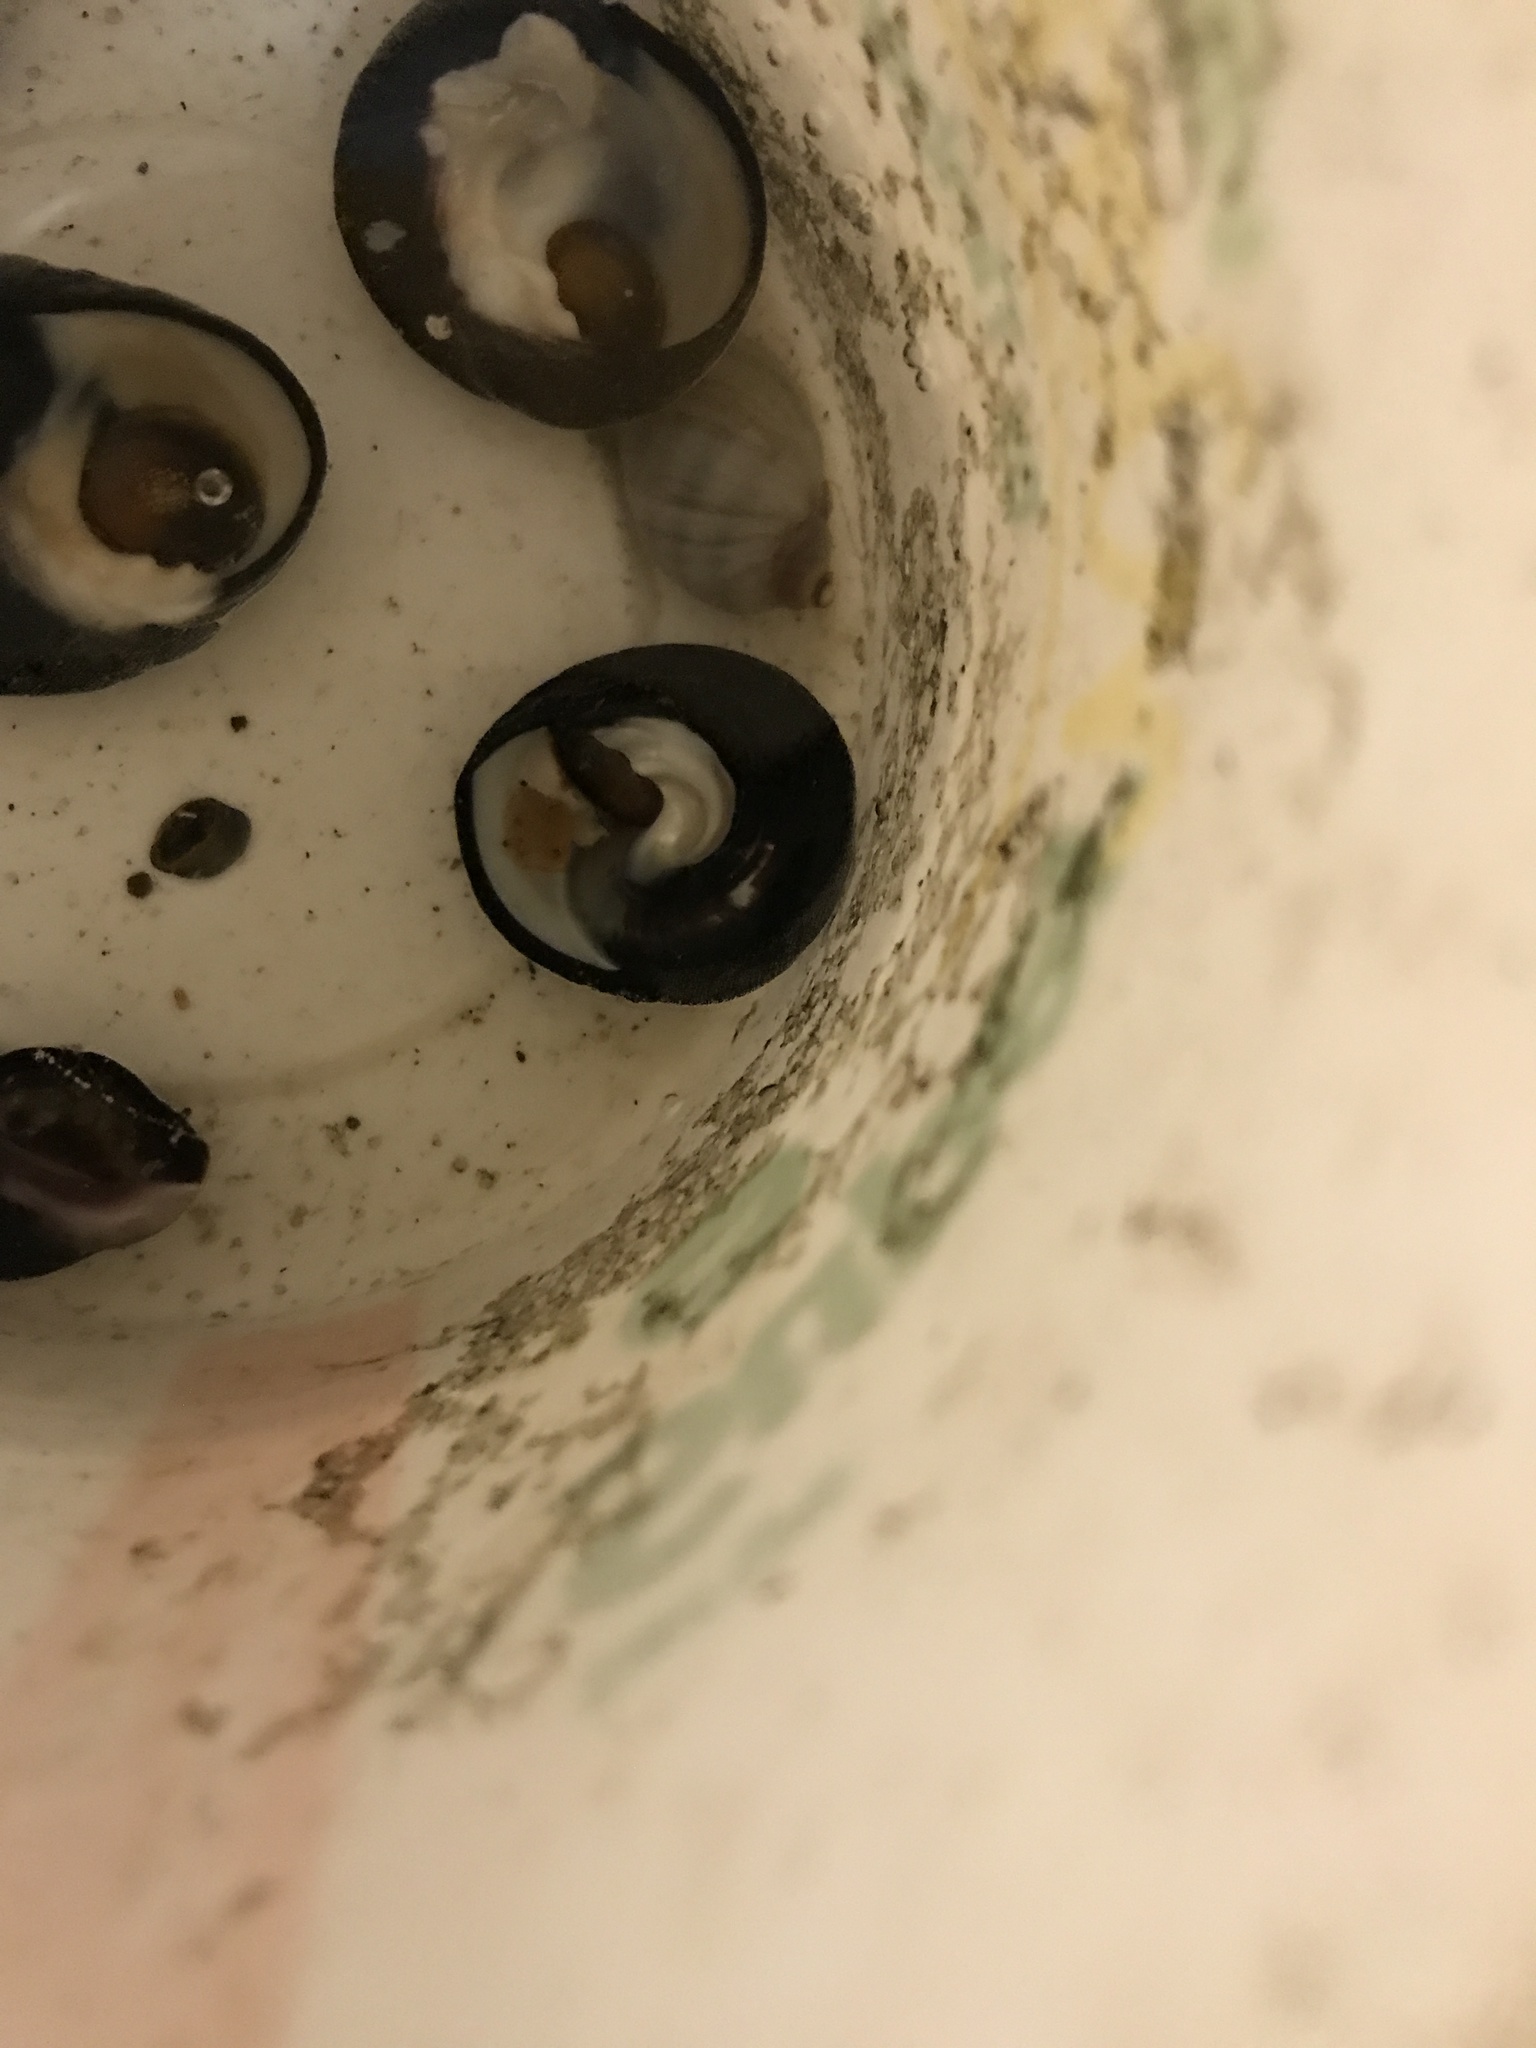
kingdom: Animalia
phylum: Mollusca
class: Gastropoda
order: Trochida
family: Tegulidae
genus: Tegula
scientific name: Tegula funebralis
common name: Black tegula
